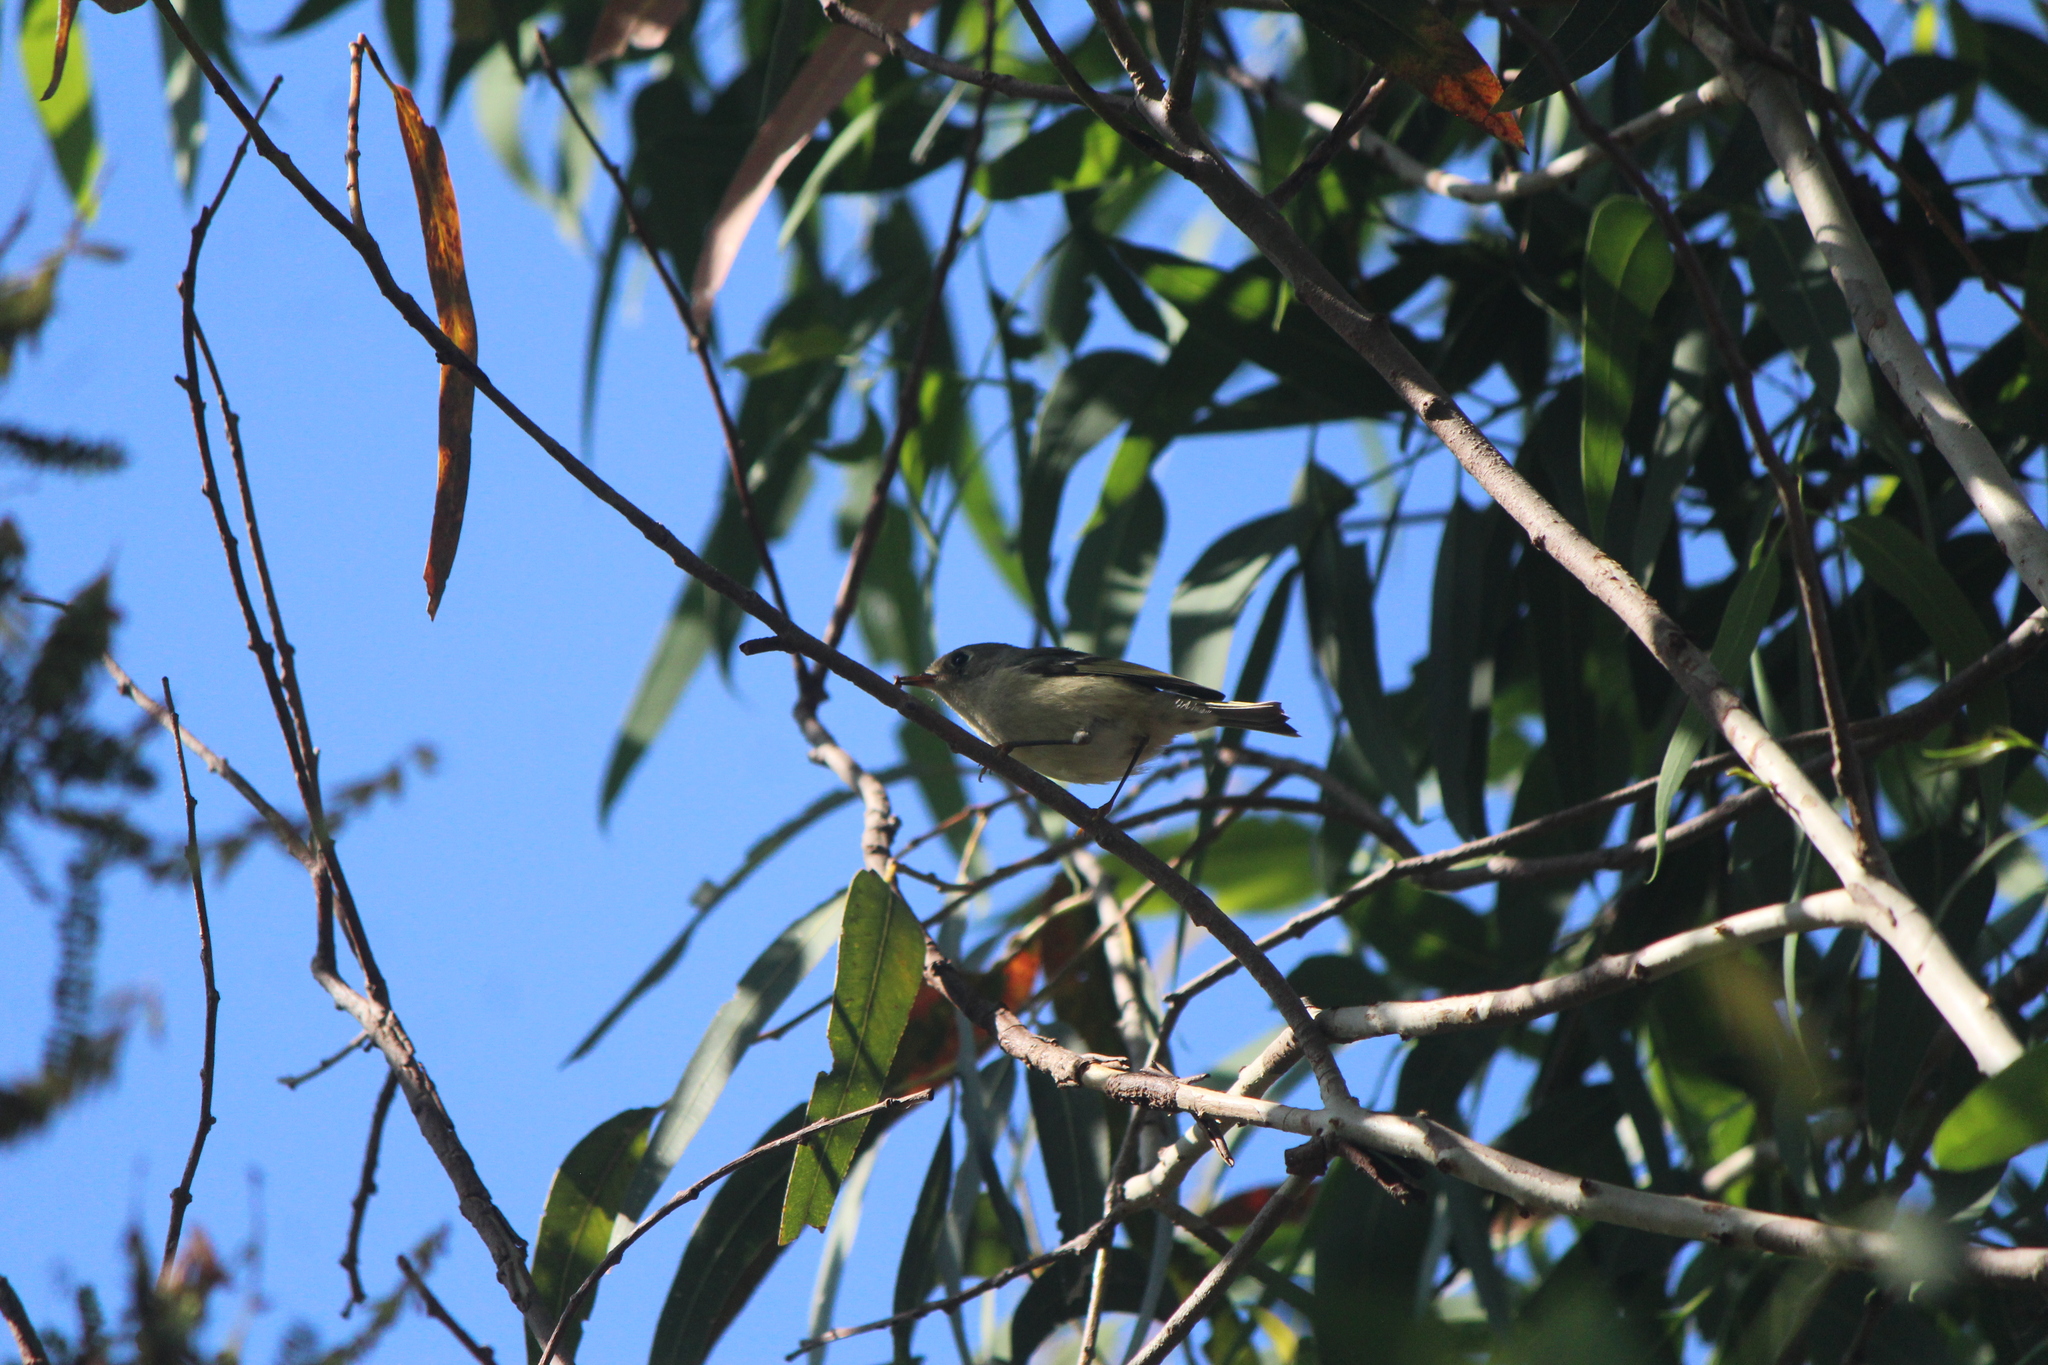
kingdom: Animalia
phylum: Chordata
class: Aves
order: Passeriformes
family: Regulidae
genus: Regulus
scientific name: Regulus calendula
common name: Ruby-crowned kinglet
